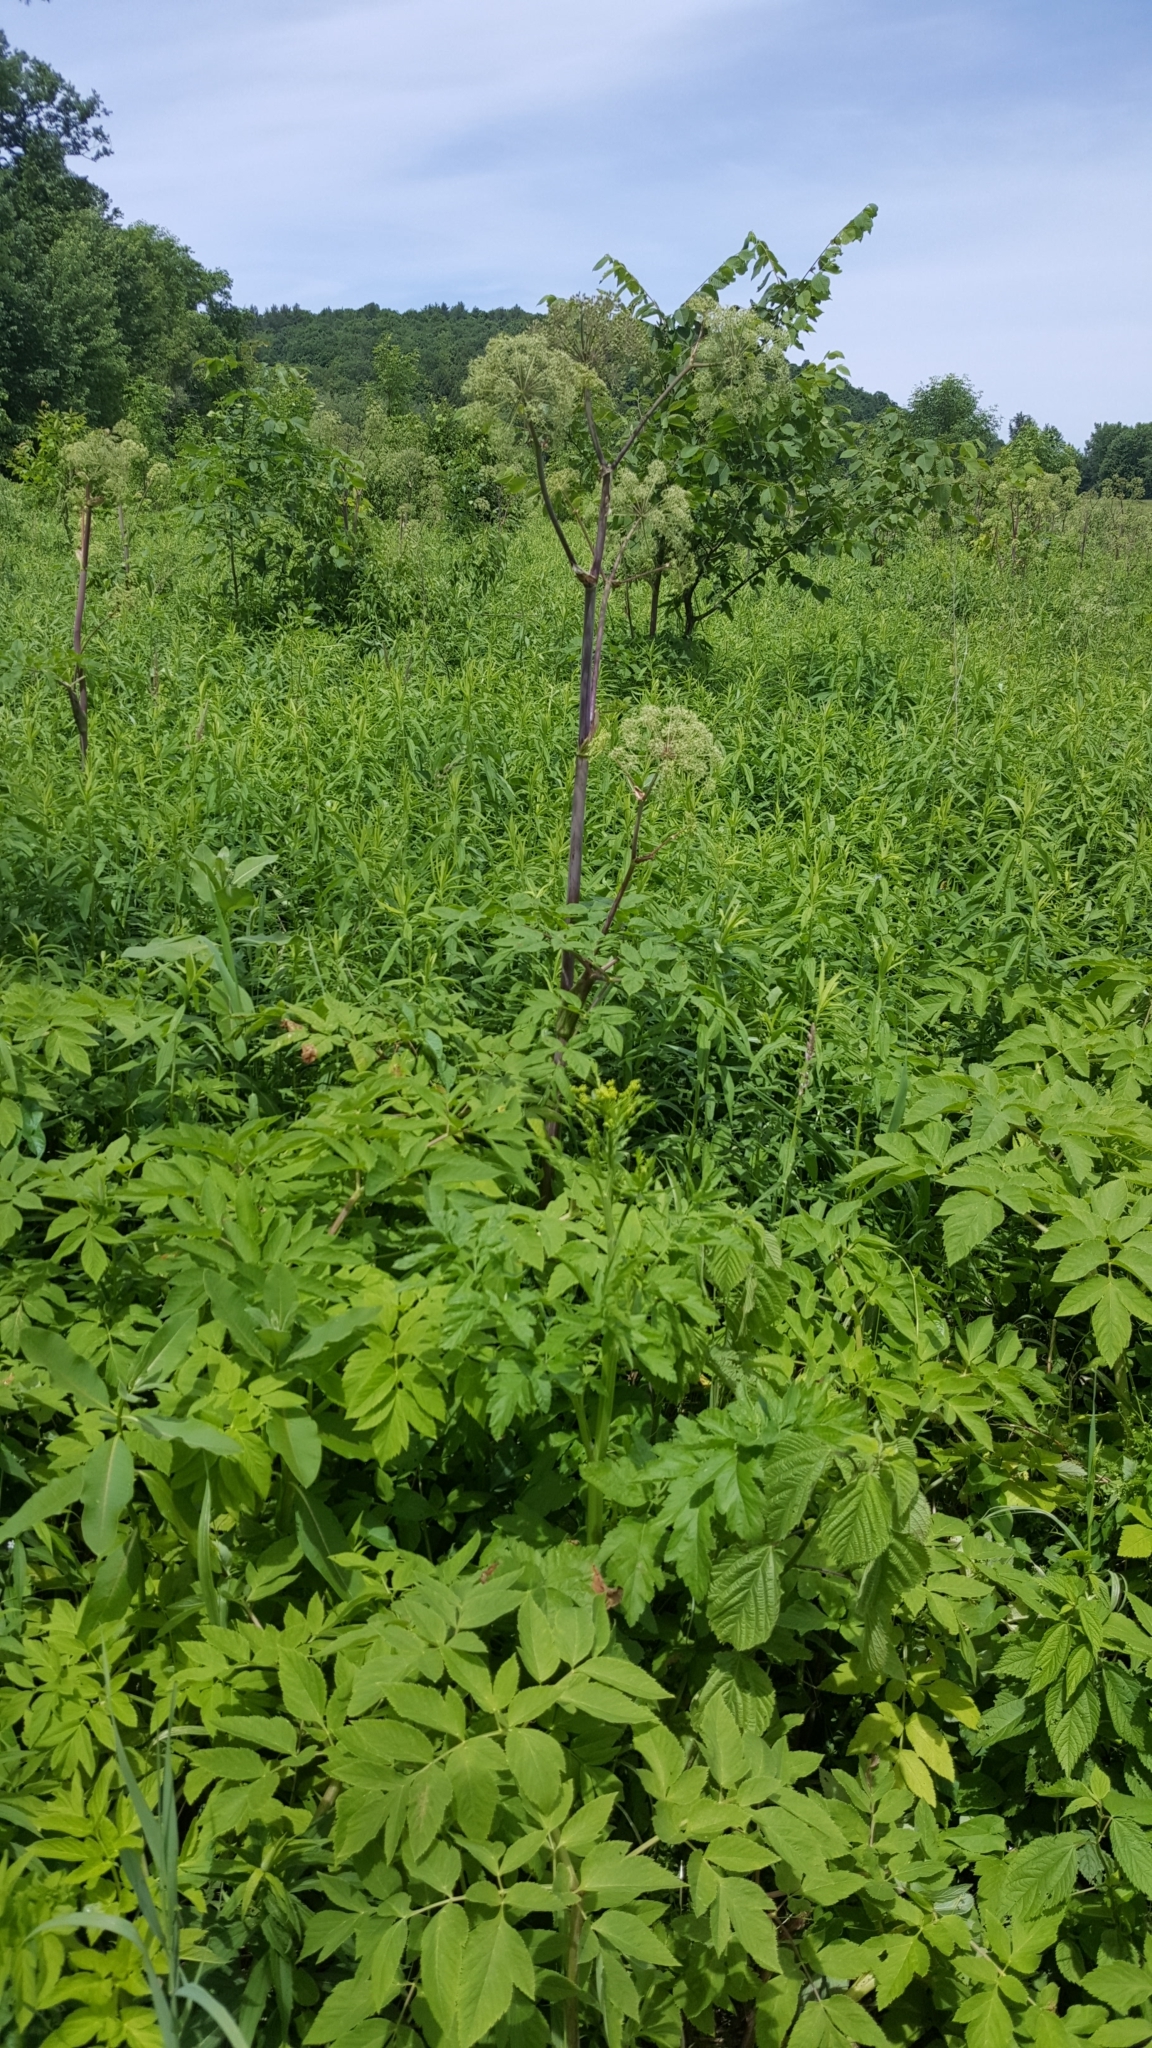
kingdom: Plantae
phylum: Tracheophyta
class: Magnoliopsida
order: Apiales
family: Apiaceae
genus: Angelica
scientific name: Angelica atropurpurea
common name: Great angelica
